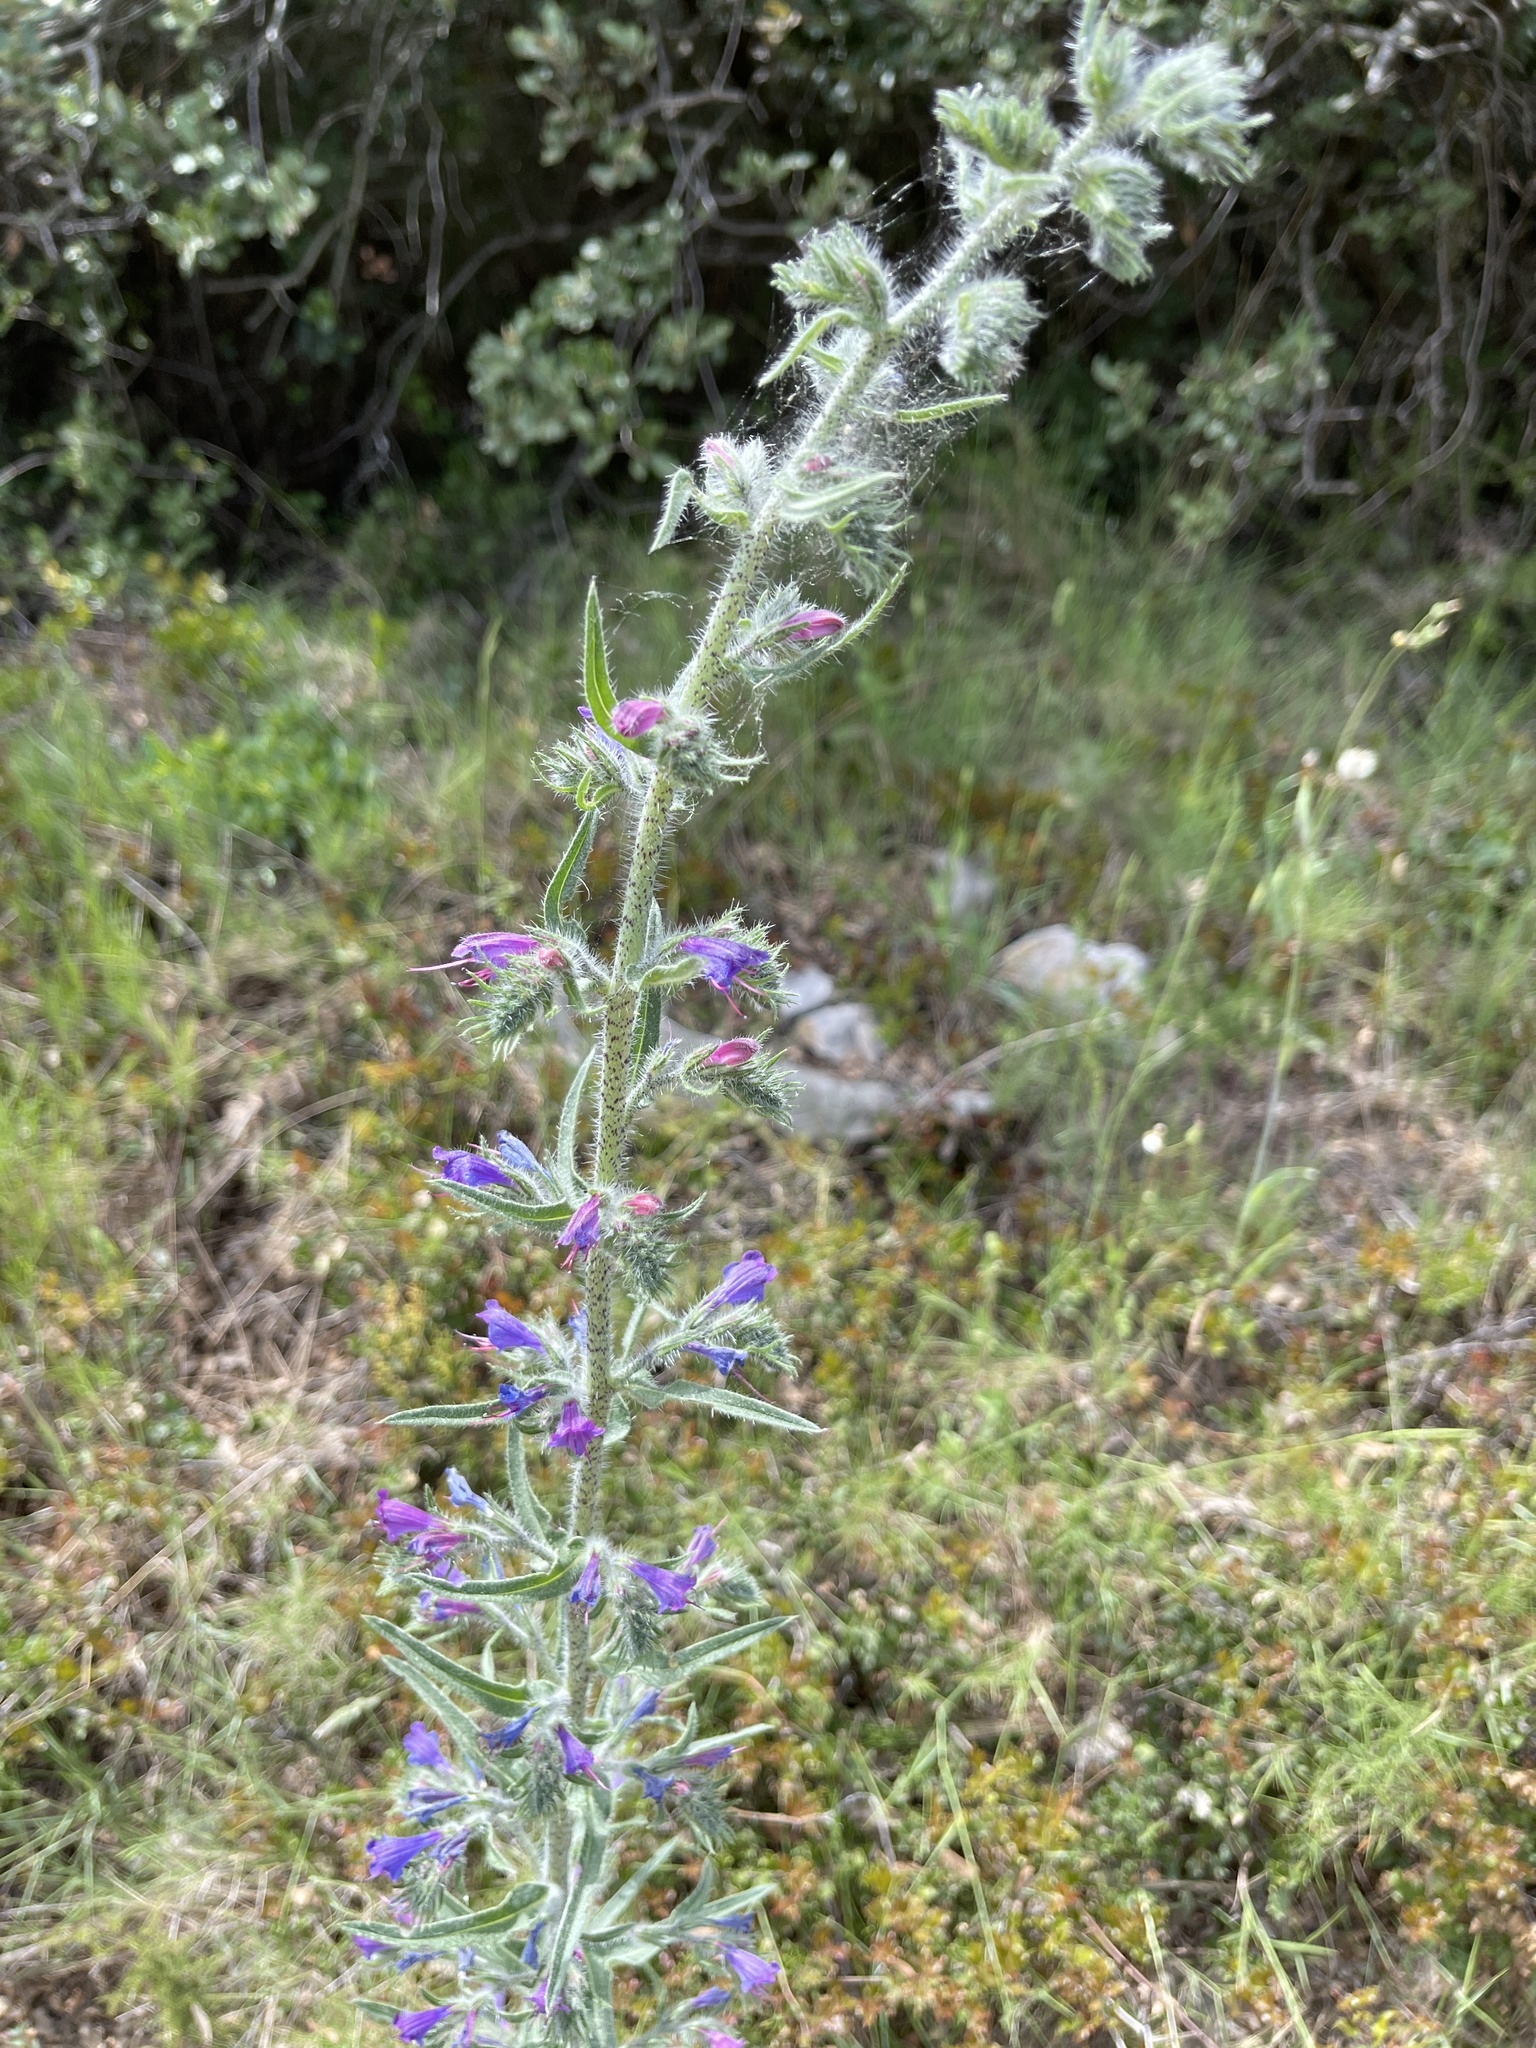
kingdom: Plantae
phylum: Tracheophyta
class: Magnoliopsida
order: Boraginales
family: Boraginaceae
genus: Echium
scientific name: Echium vulgare
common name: Common viper's bugloss
